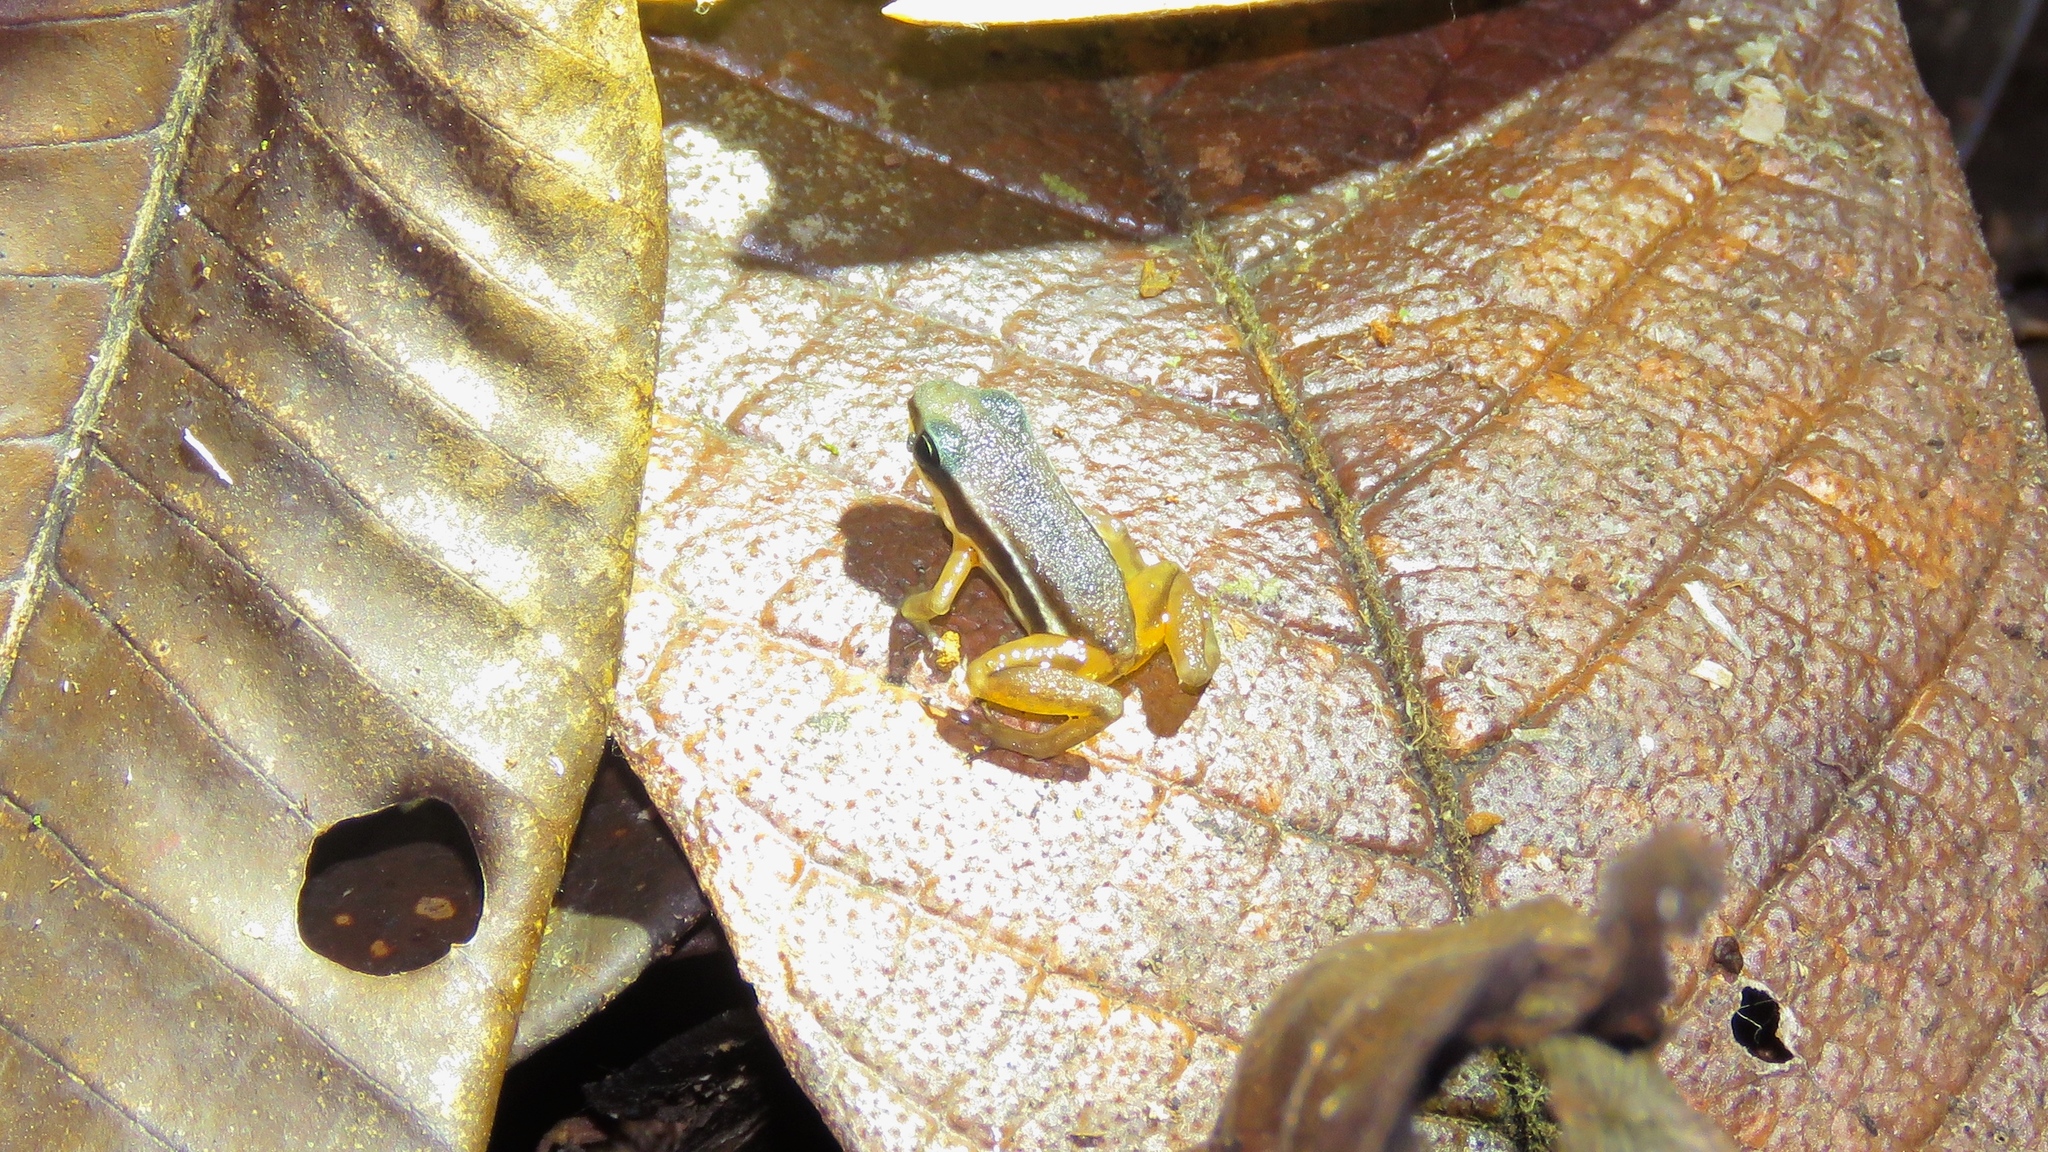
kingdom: Animalia
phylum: Chordata
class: Amphibia
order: Anura
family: Dendrobatidae
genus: Silverstoneia
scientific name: Silverstoneia flotator
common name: Rainforest rocket frog
